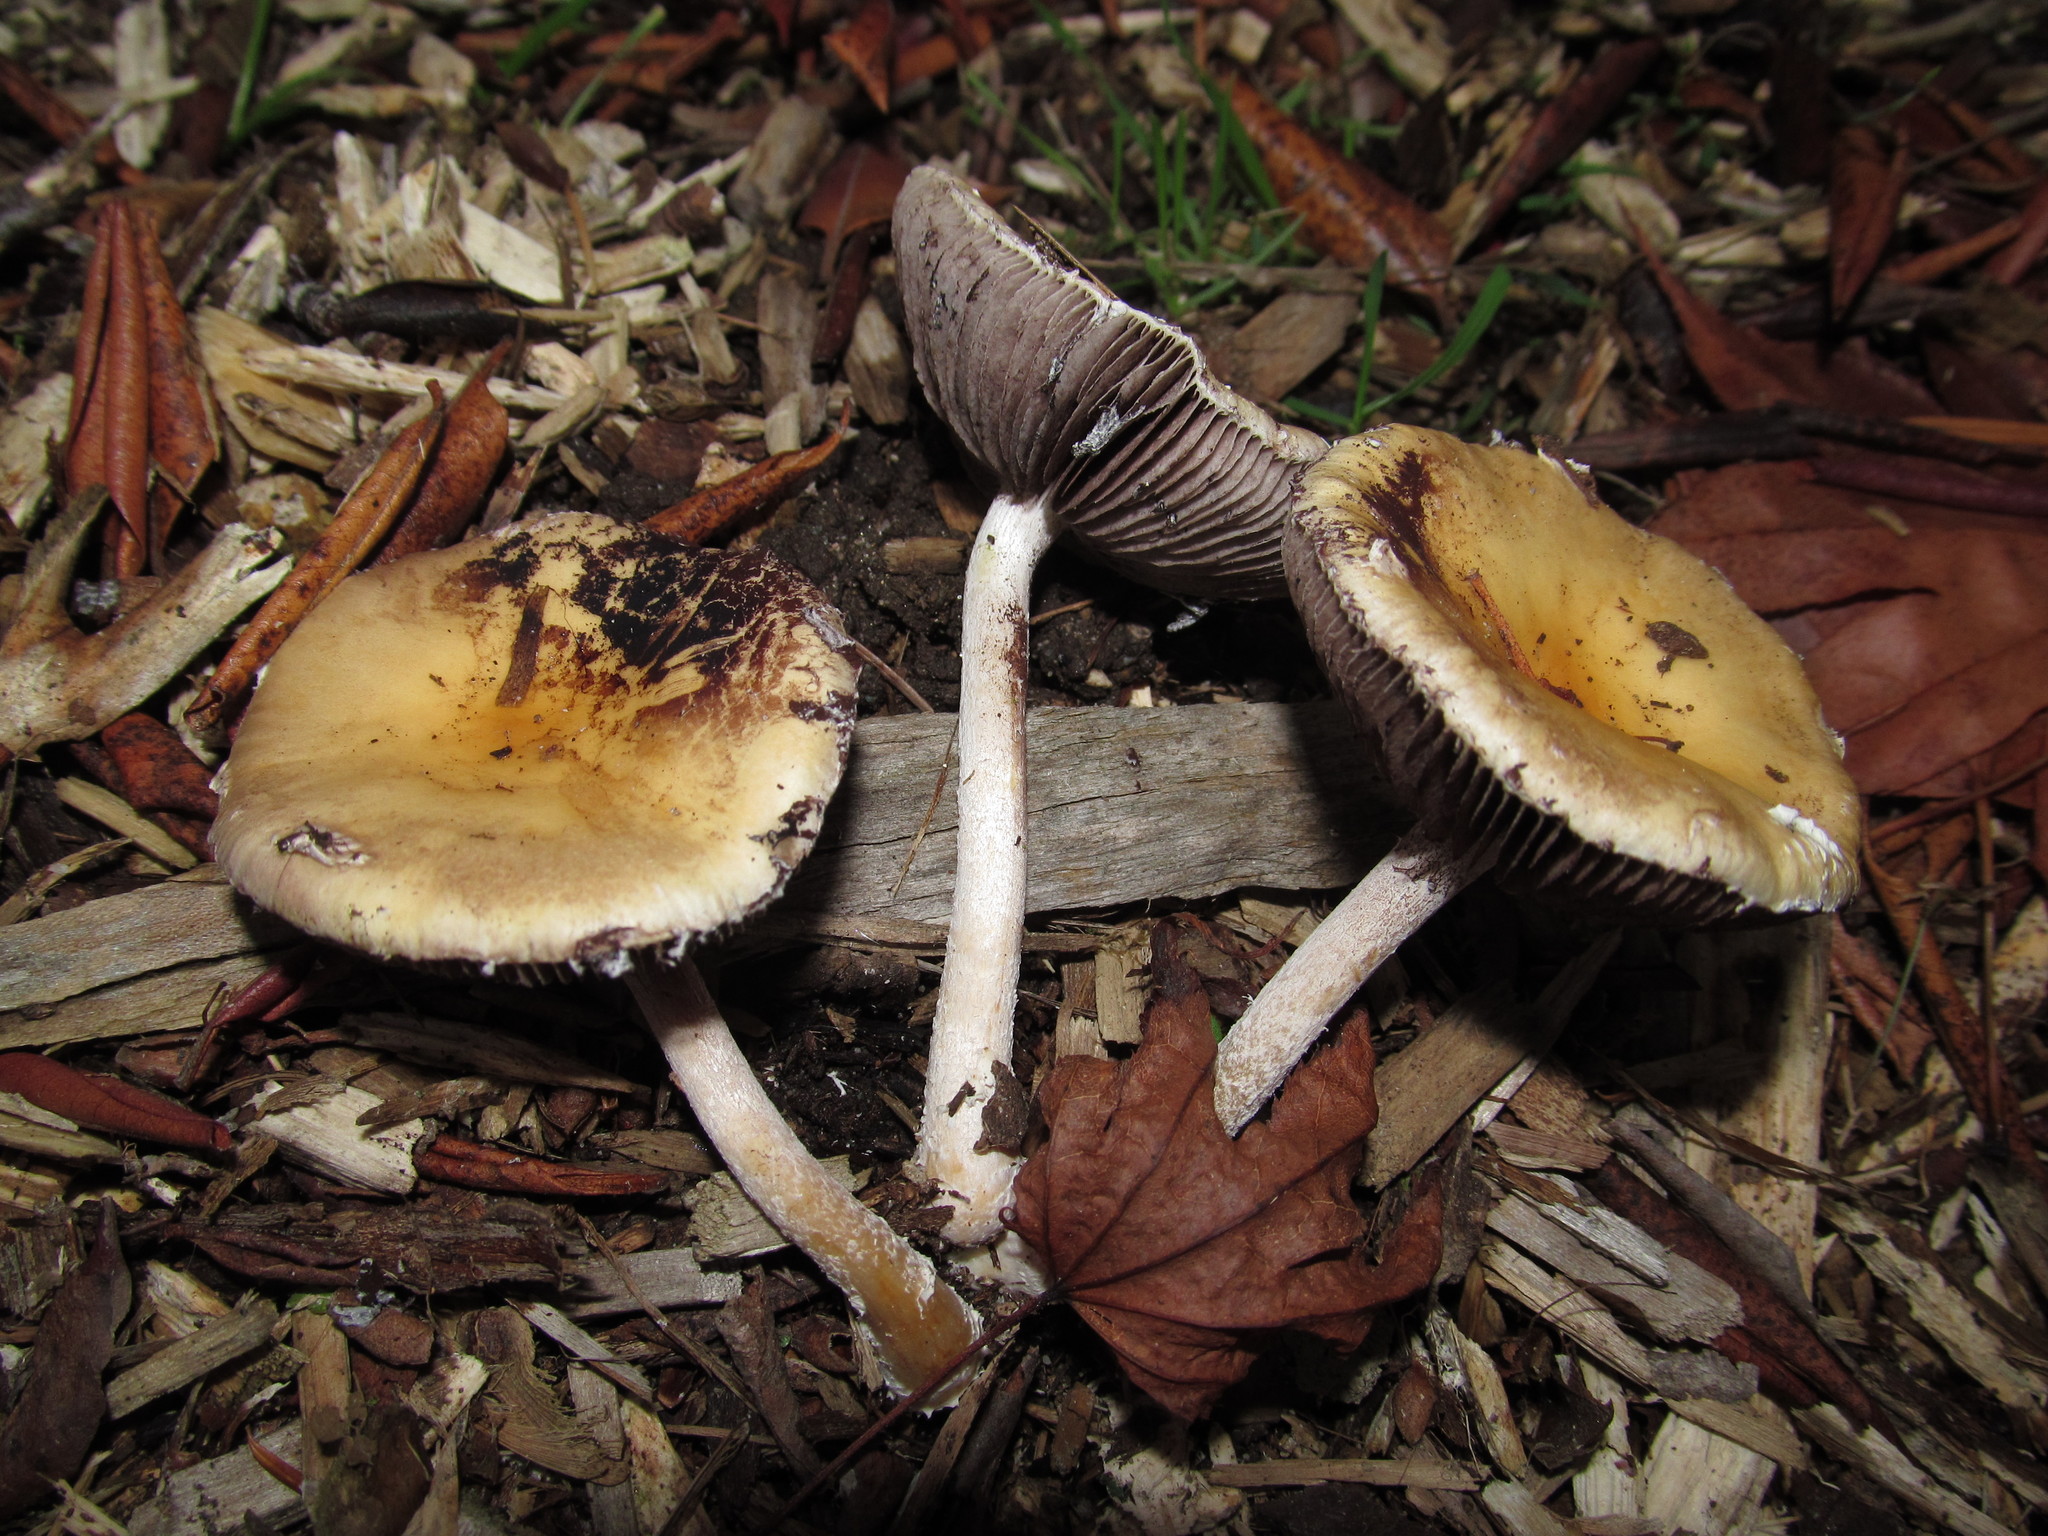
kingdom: Fungi
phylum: Basidiomycota
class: Agaricomycetes
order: Agaricales
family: Strophariaceae
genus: Stropharia
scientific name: Stropharia ambigua
